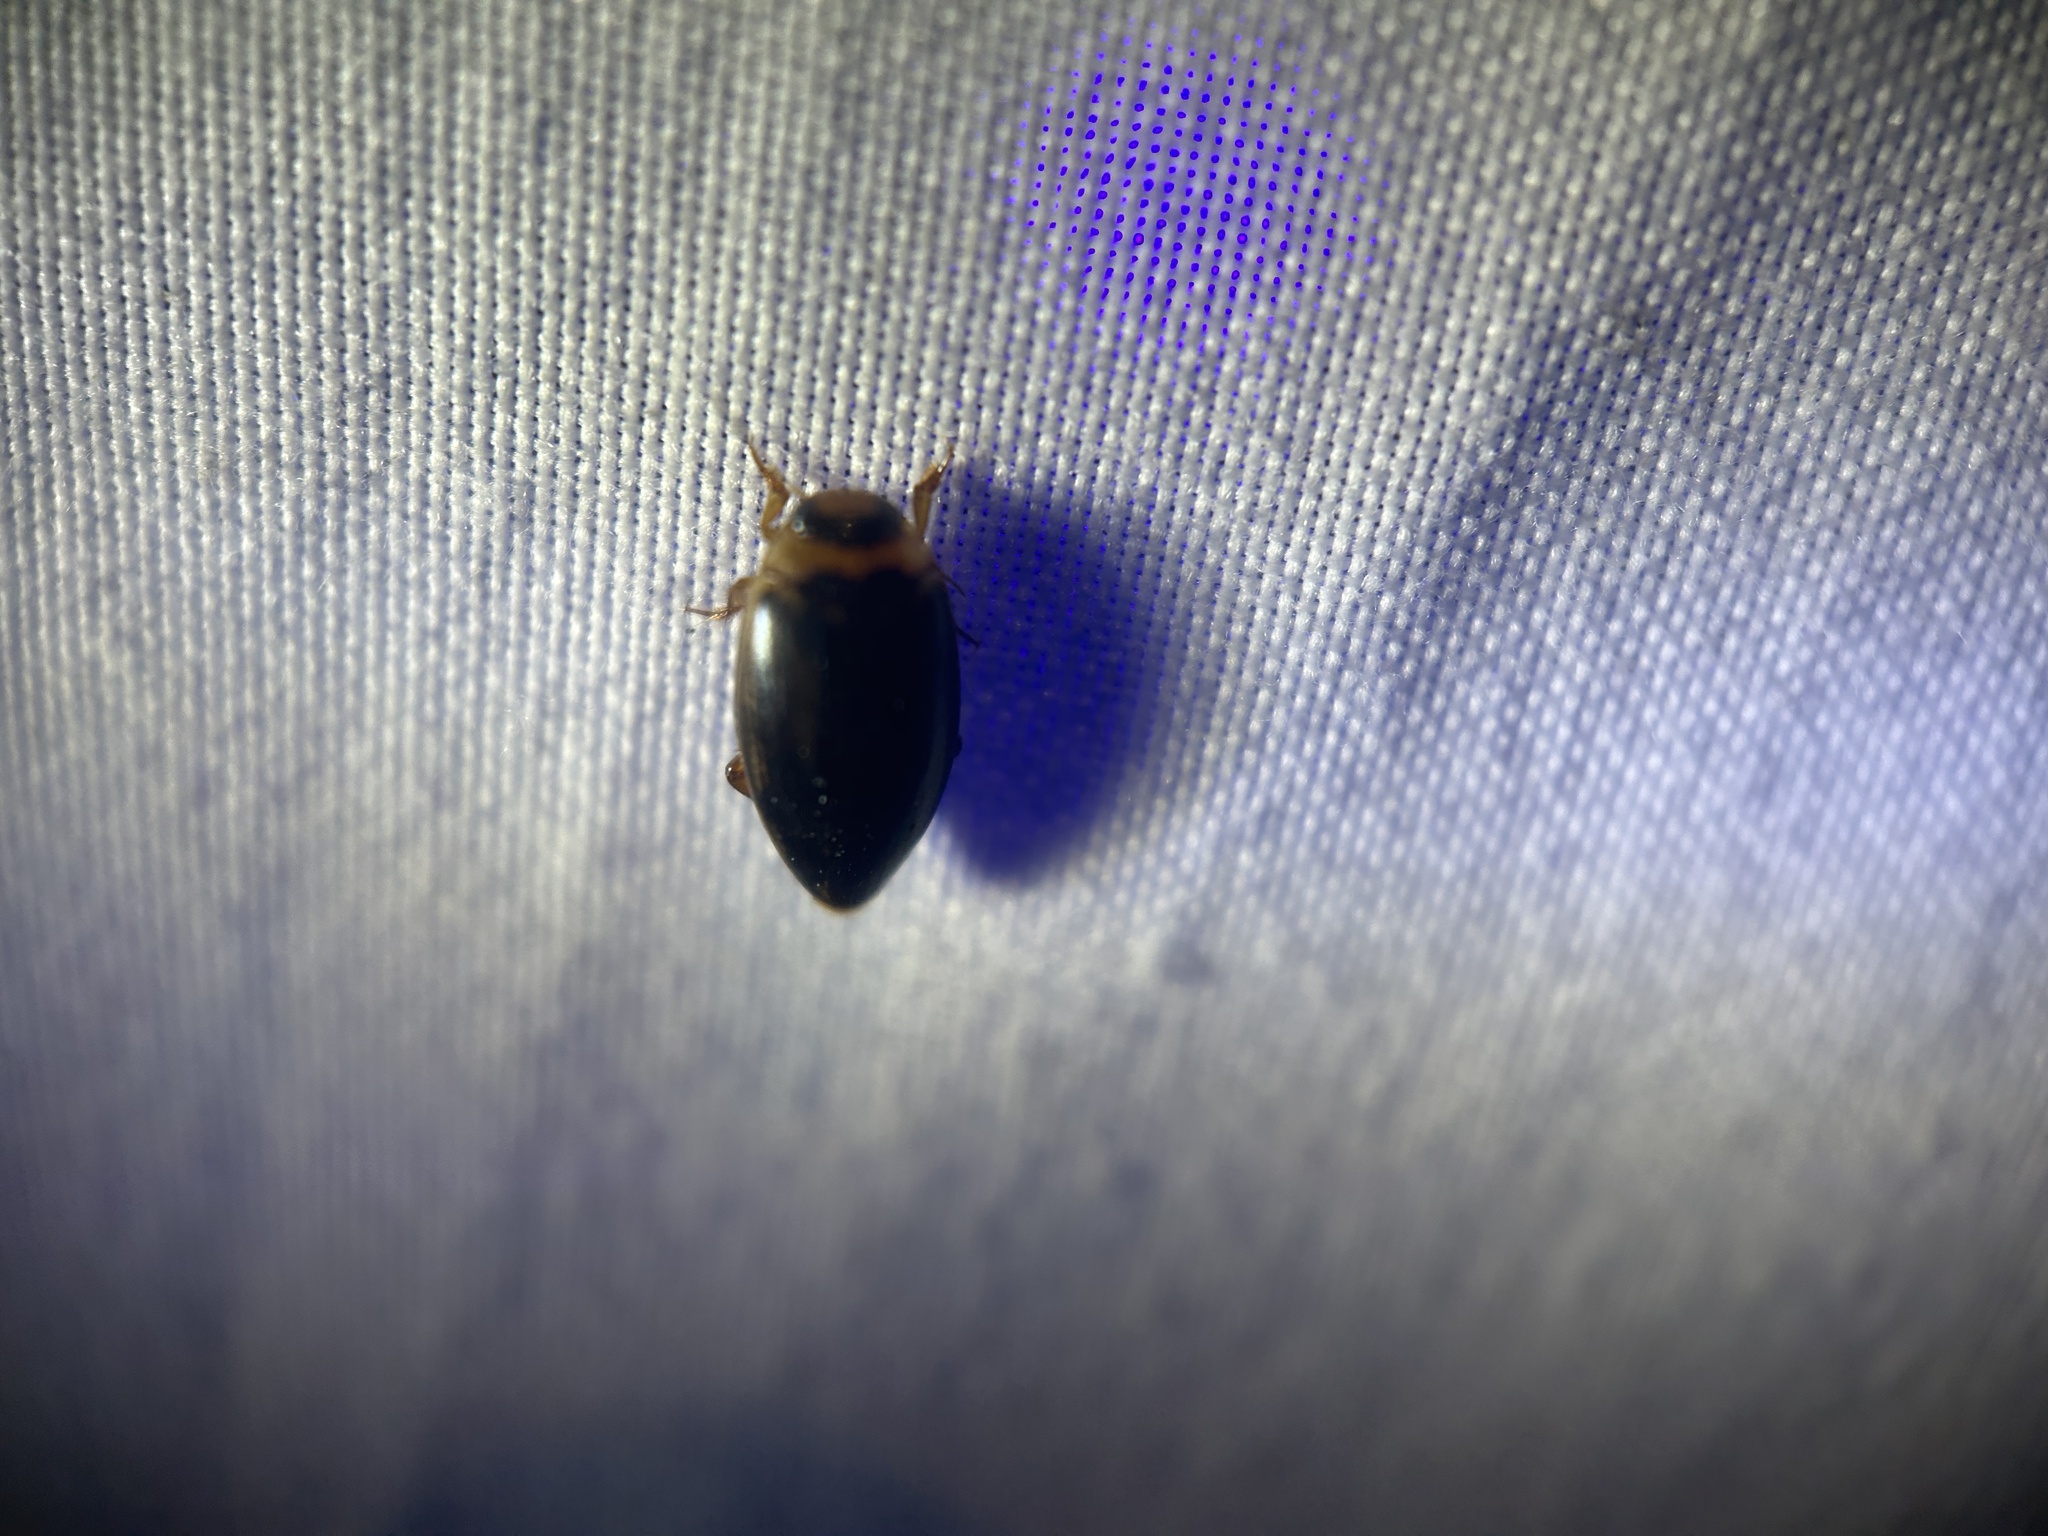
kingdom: Animalia
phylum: Arthropoda
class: Insecta
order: Coleoptera
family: Dytiscidae
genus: Coptotomus
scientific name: Coptotomus
